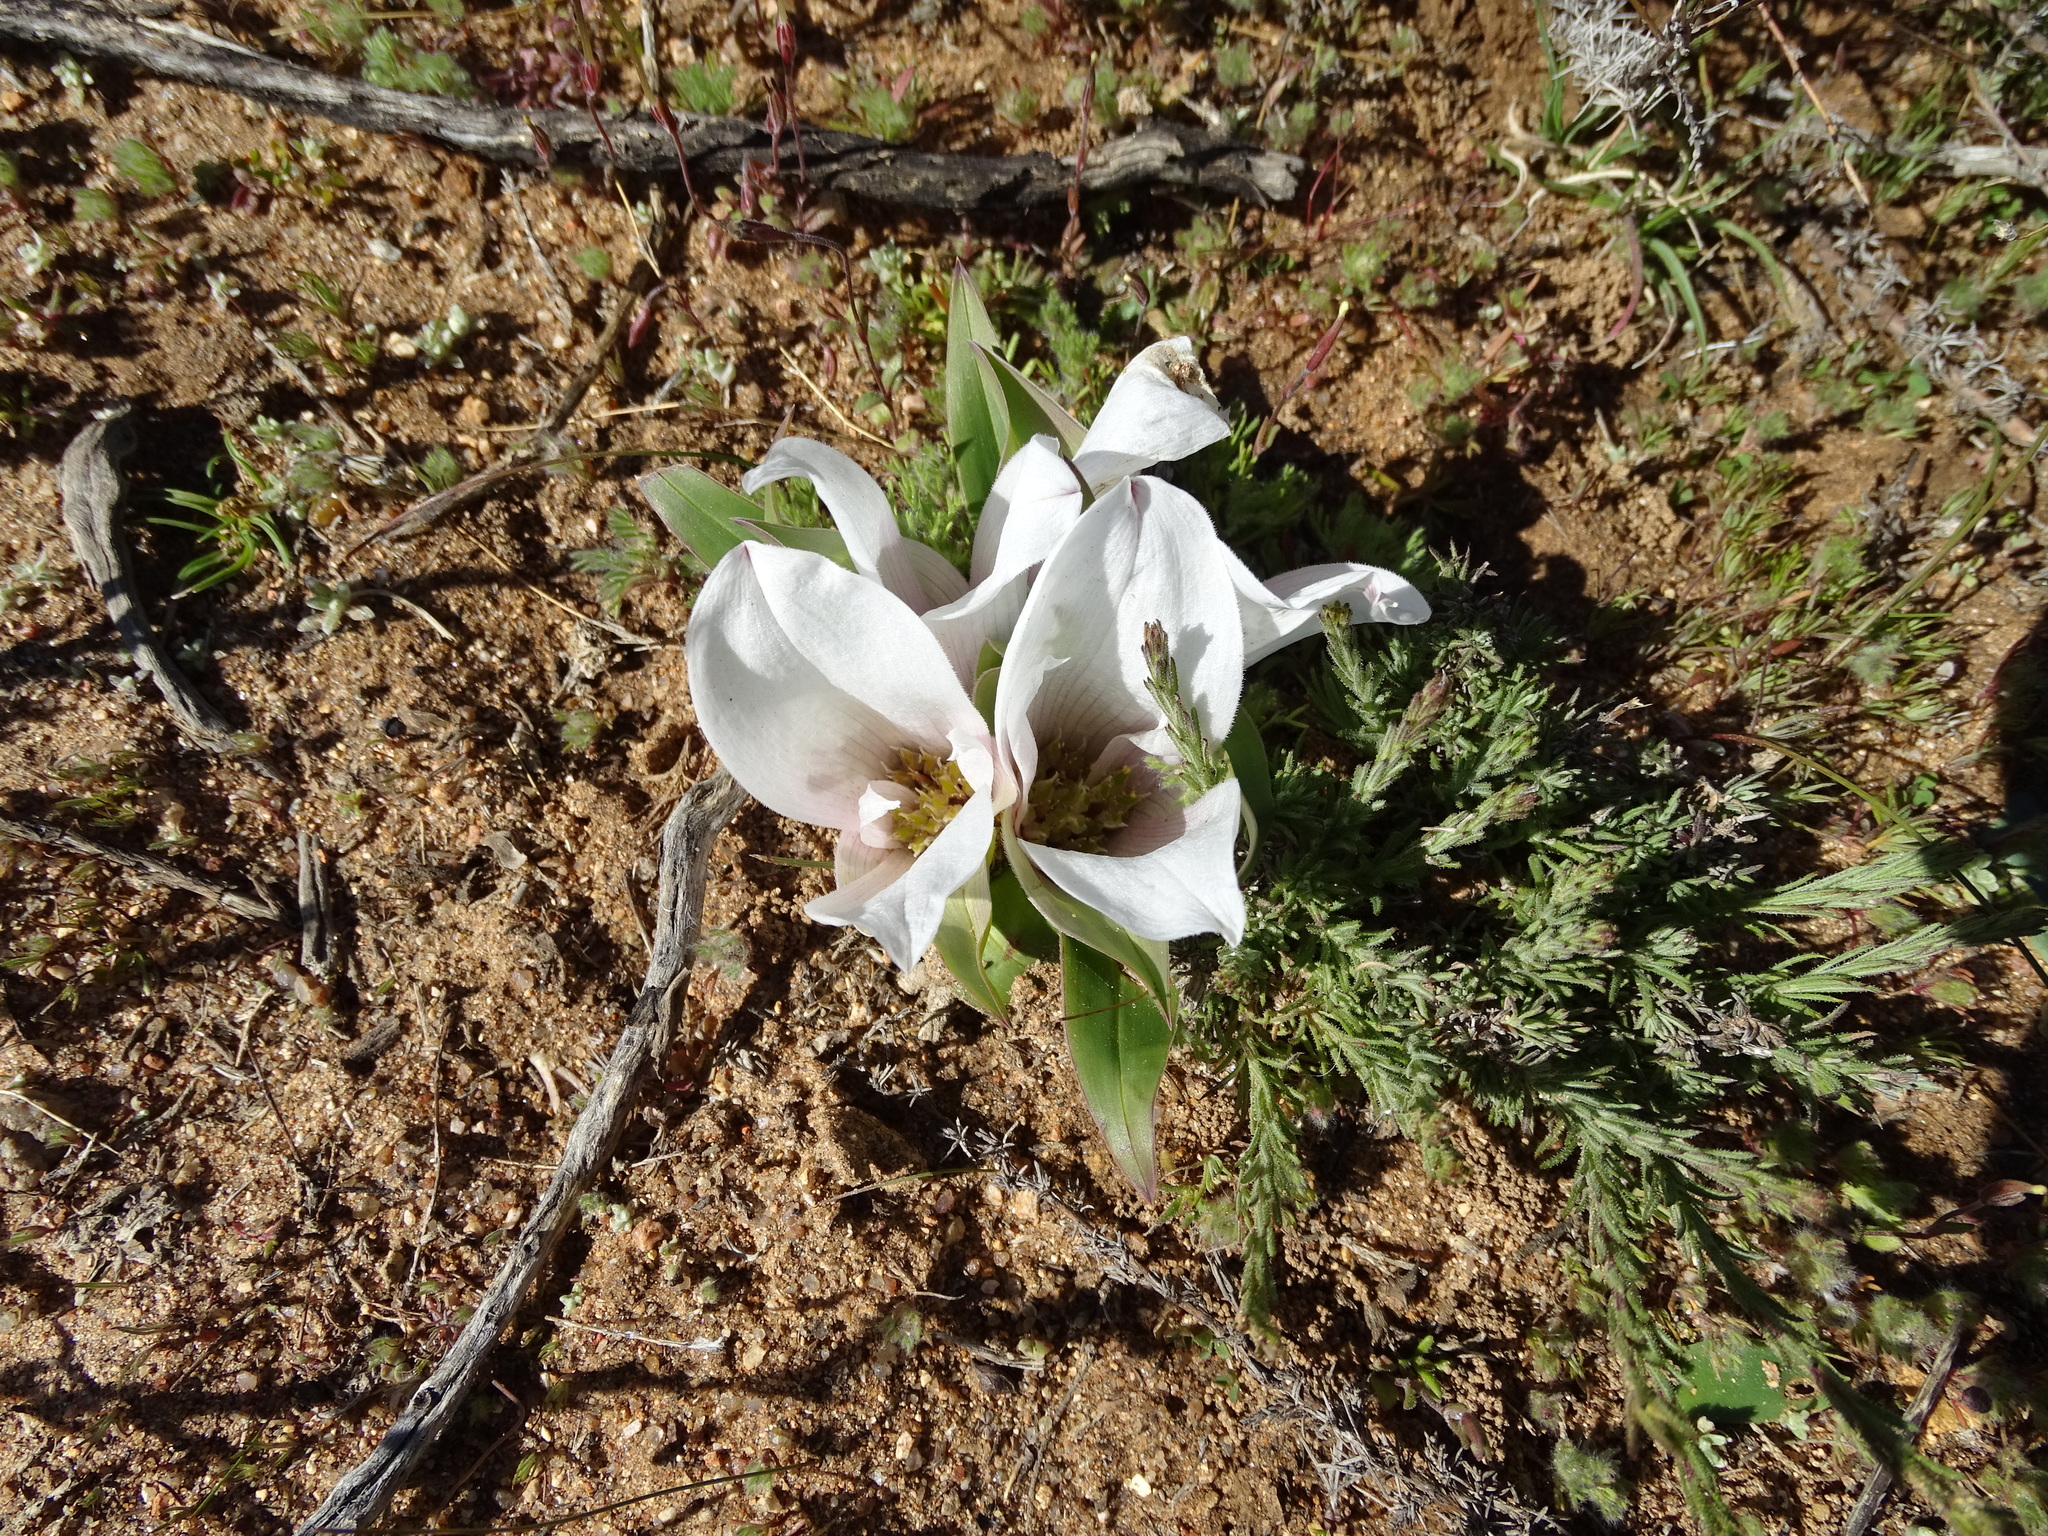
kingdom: Plantae
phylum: Tracheophyta
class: Liliopsida
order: Liliales
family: Colchicaceae
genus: Colchicum
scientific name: Colchicum capense
